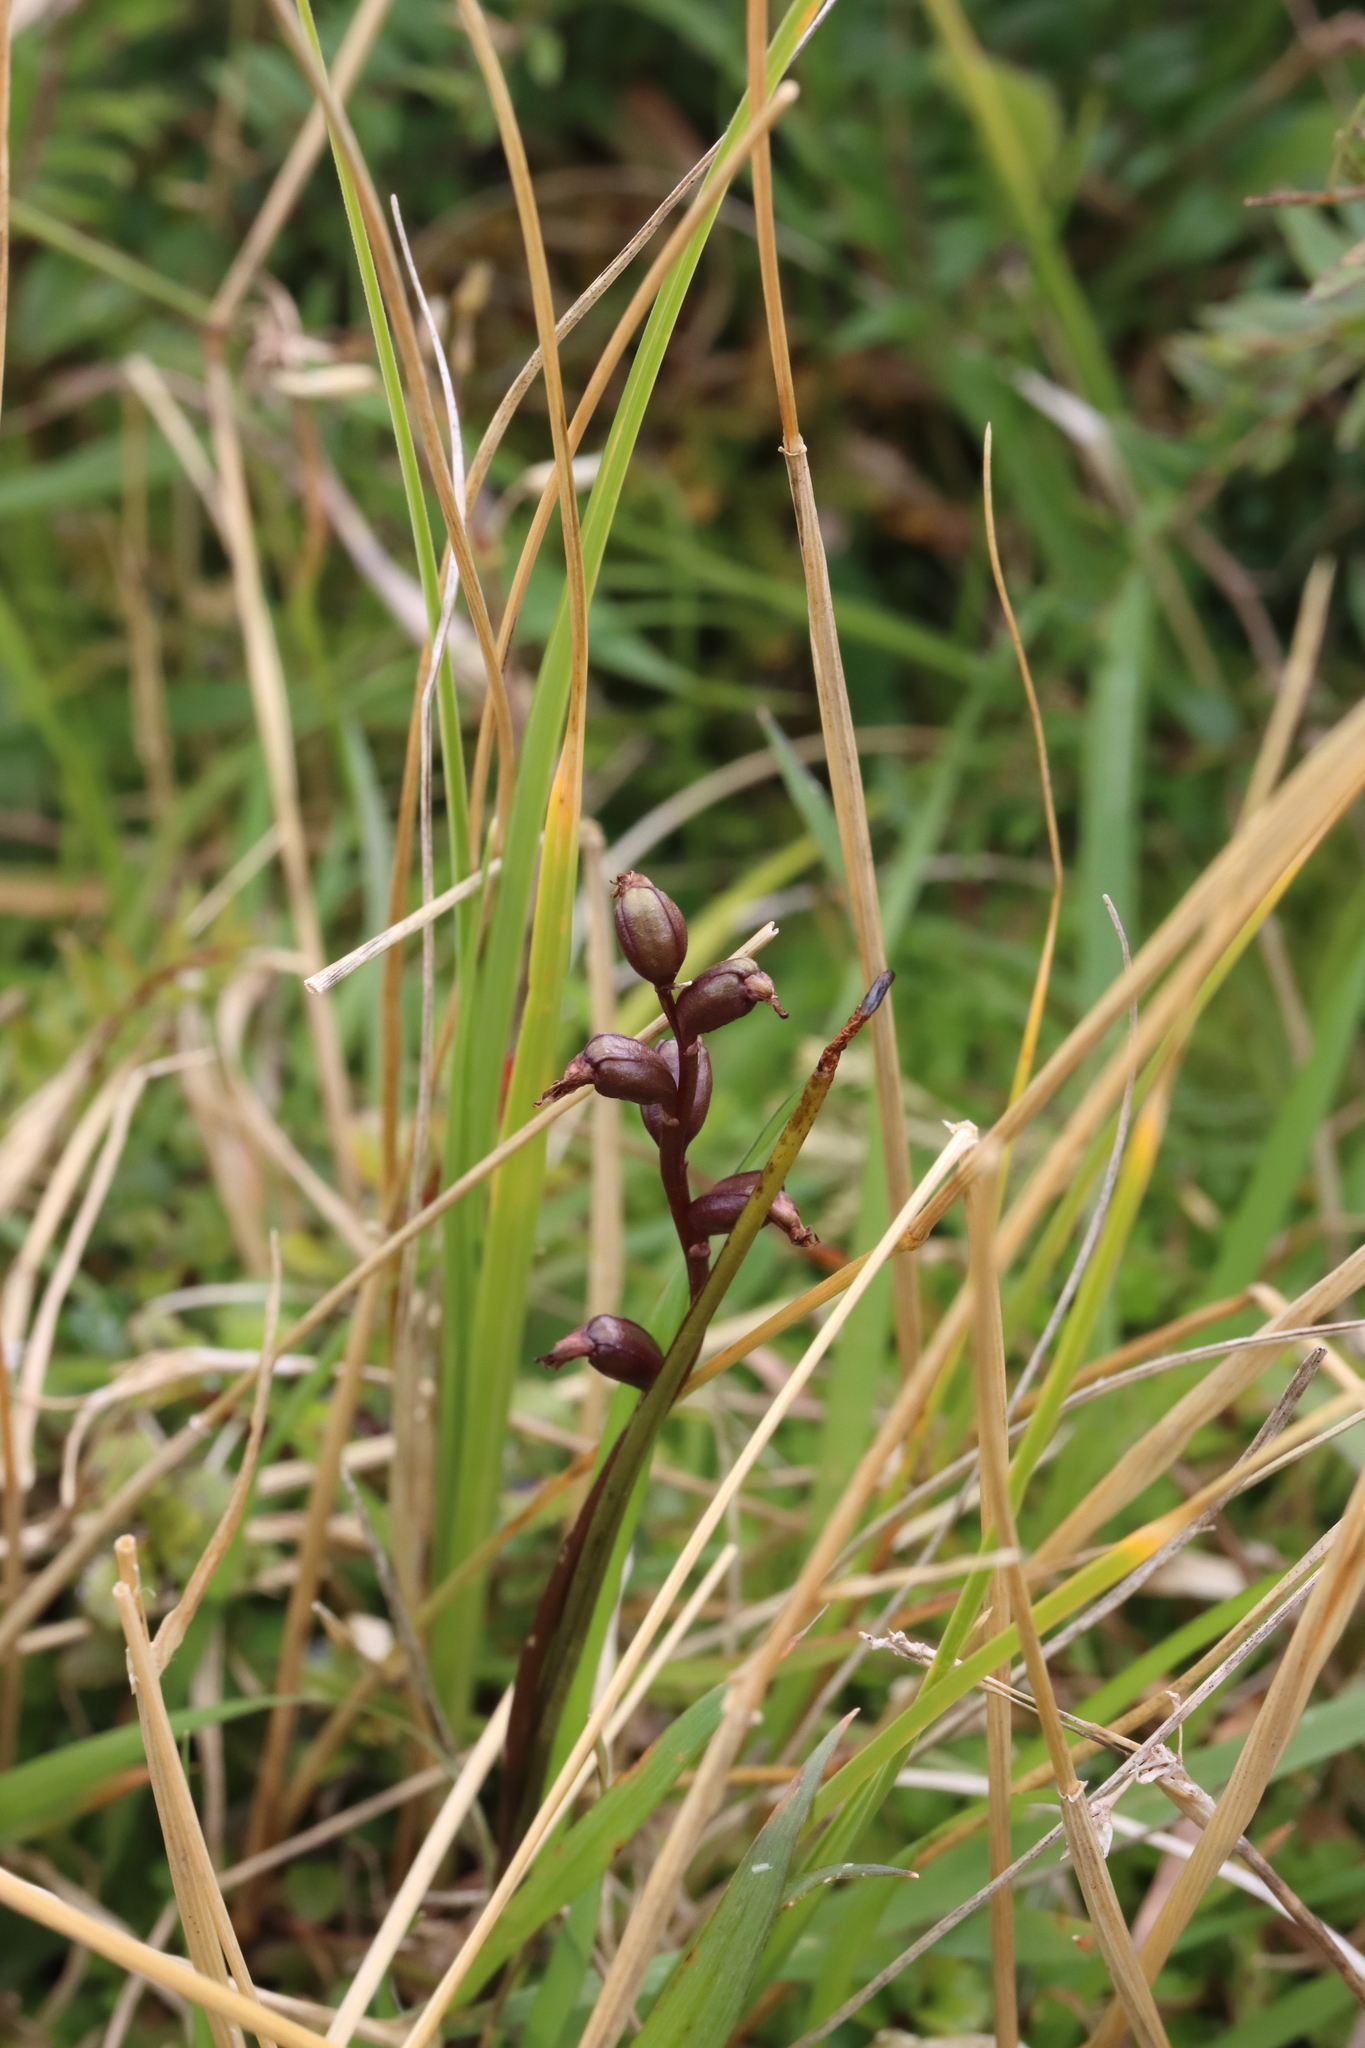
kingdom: Plantae
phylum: Tracheophyta
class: Liliopsida
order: Asparagales
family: Orchidaceae
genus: Prasophyllum
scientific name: Prasophyllum colensoi
